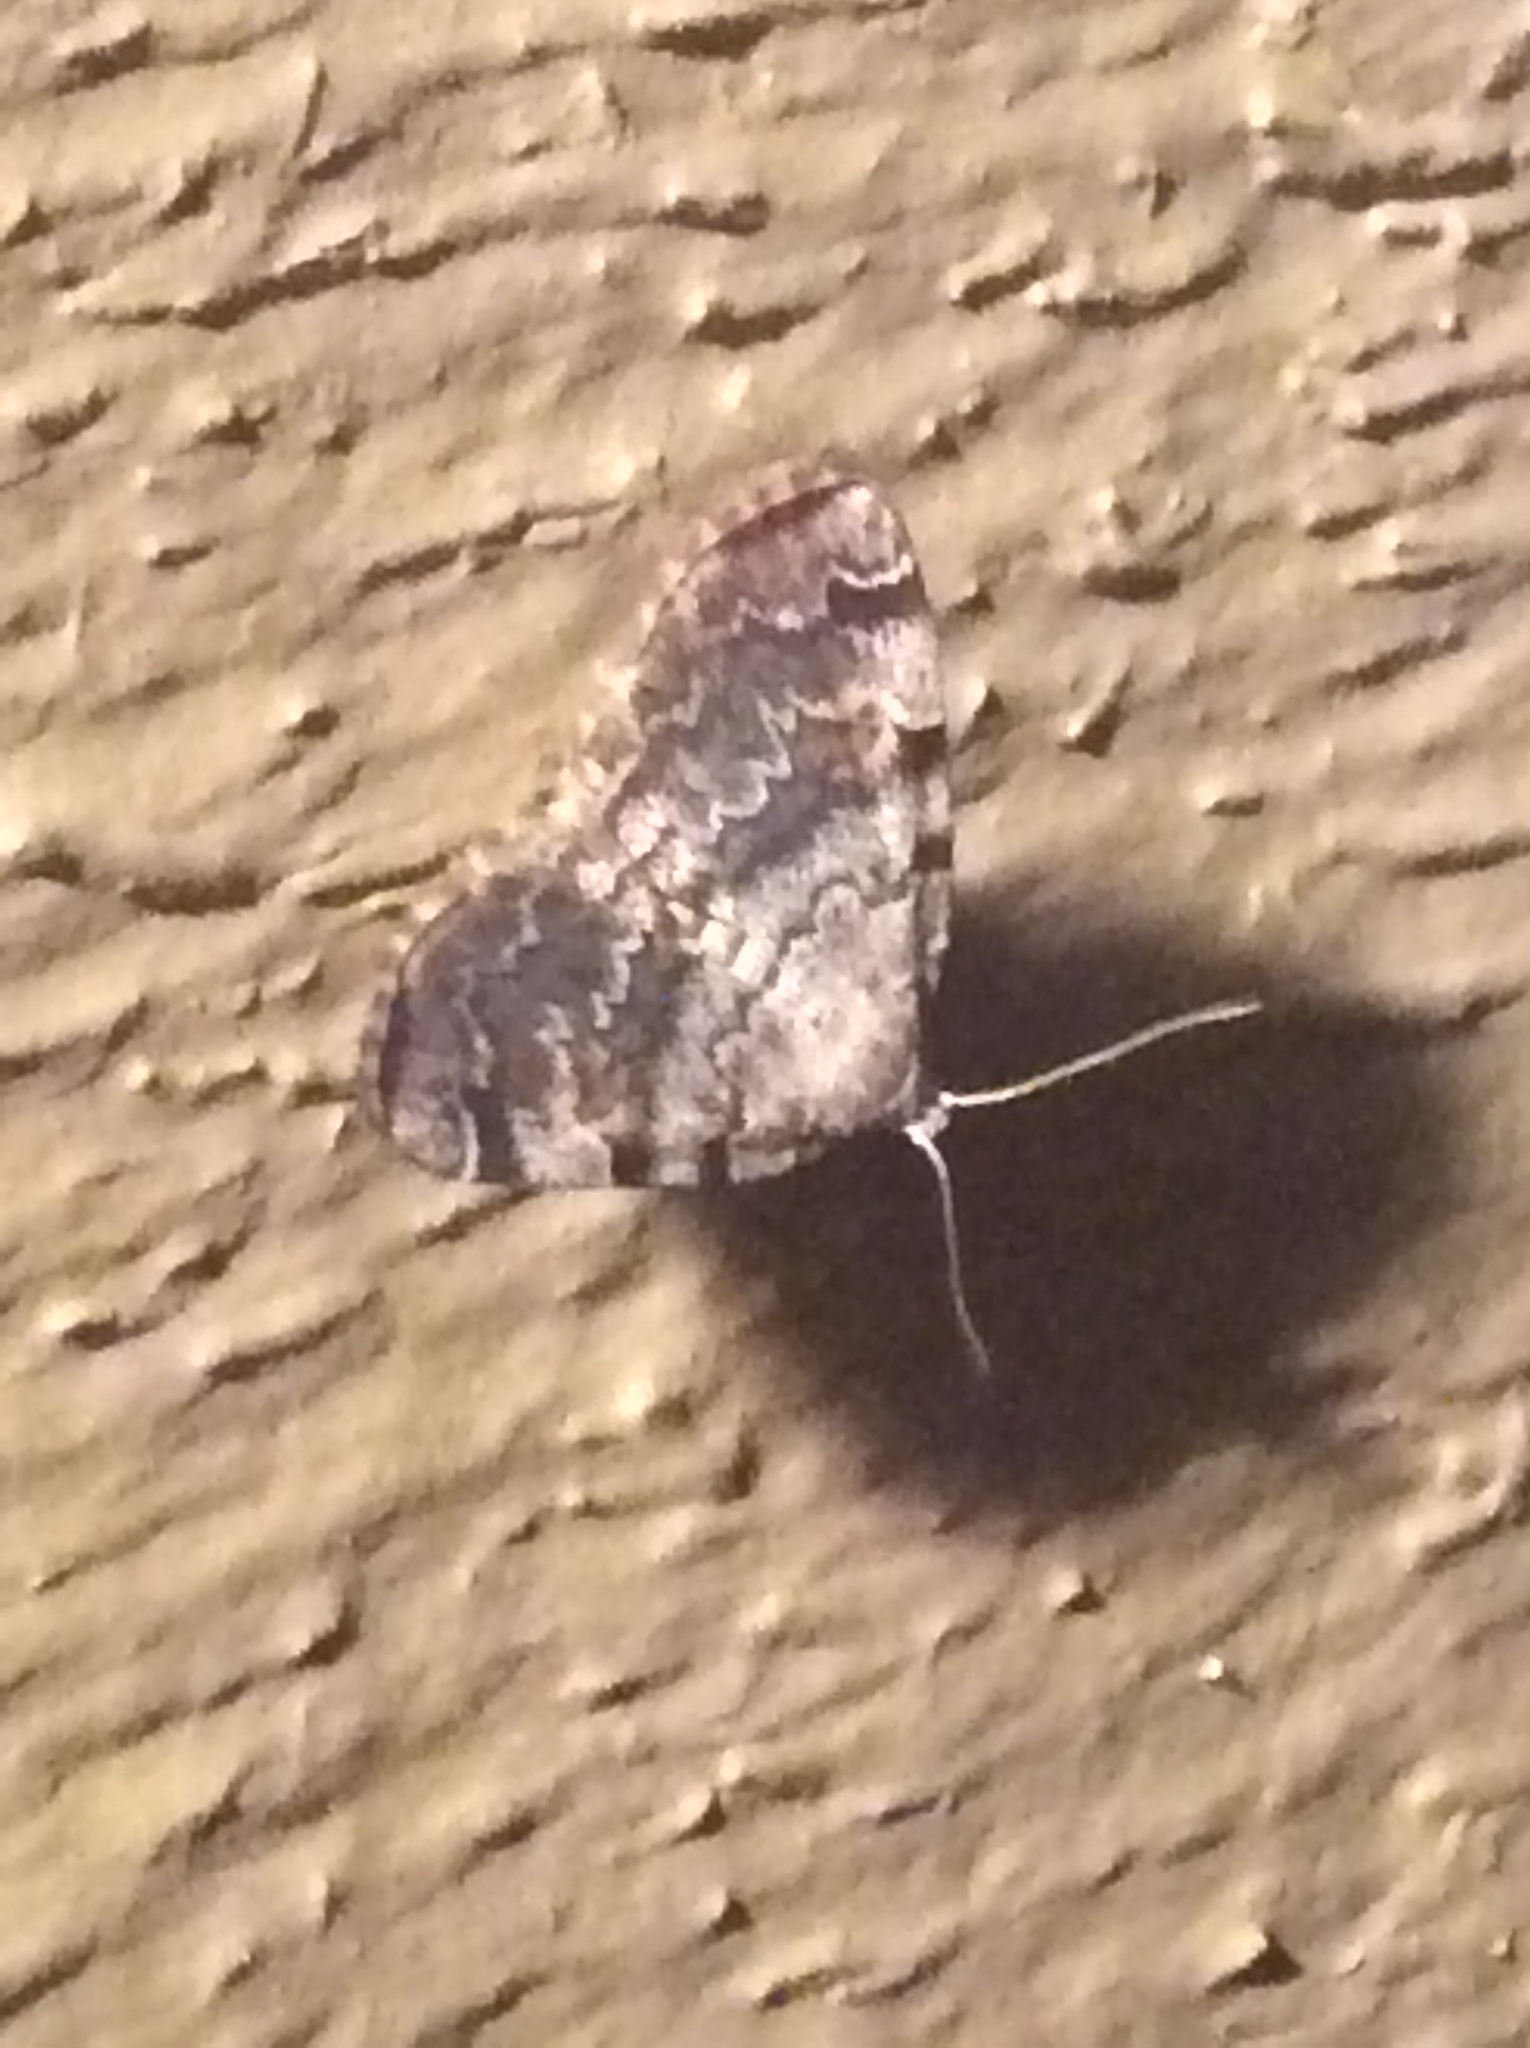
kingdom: Animalia
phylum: Arthropoda
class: Insecta
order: Lepidoptera
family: Erebidae
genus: Idia
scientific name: Idia americalis
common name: American idia moth
